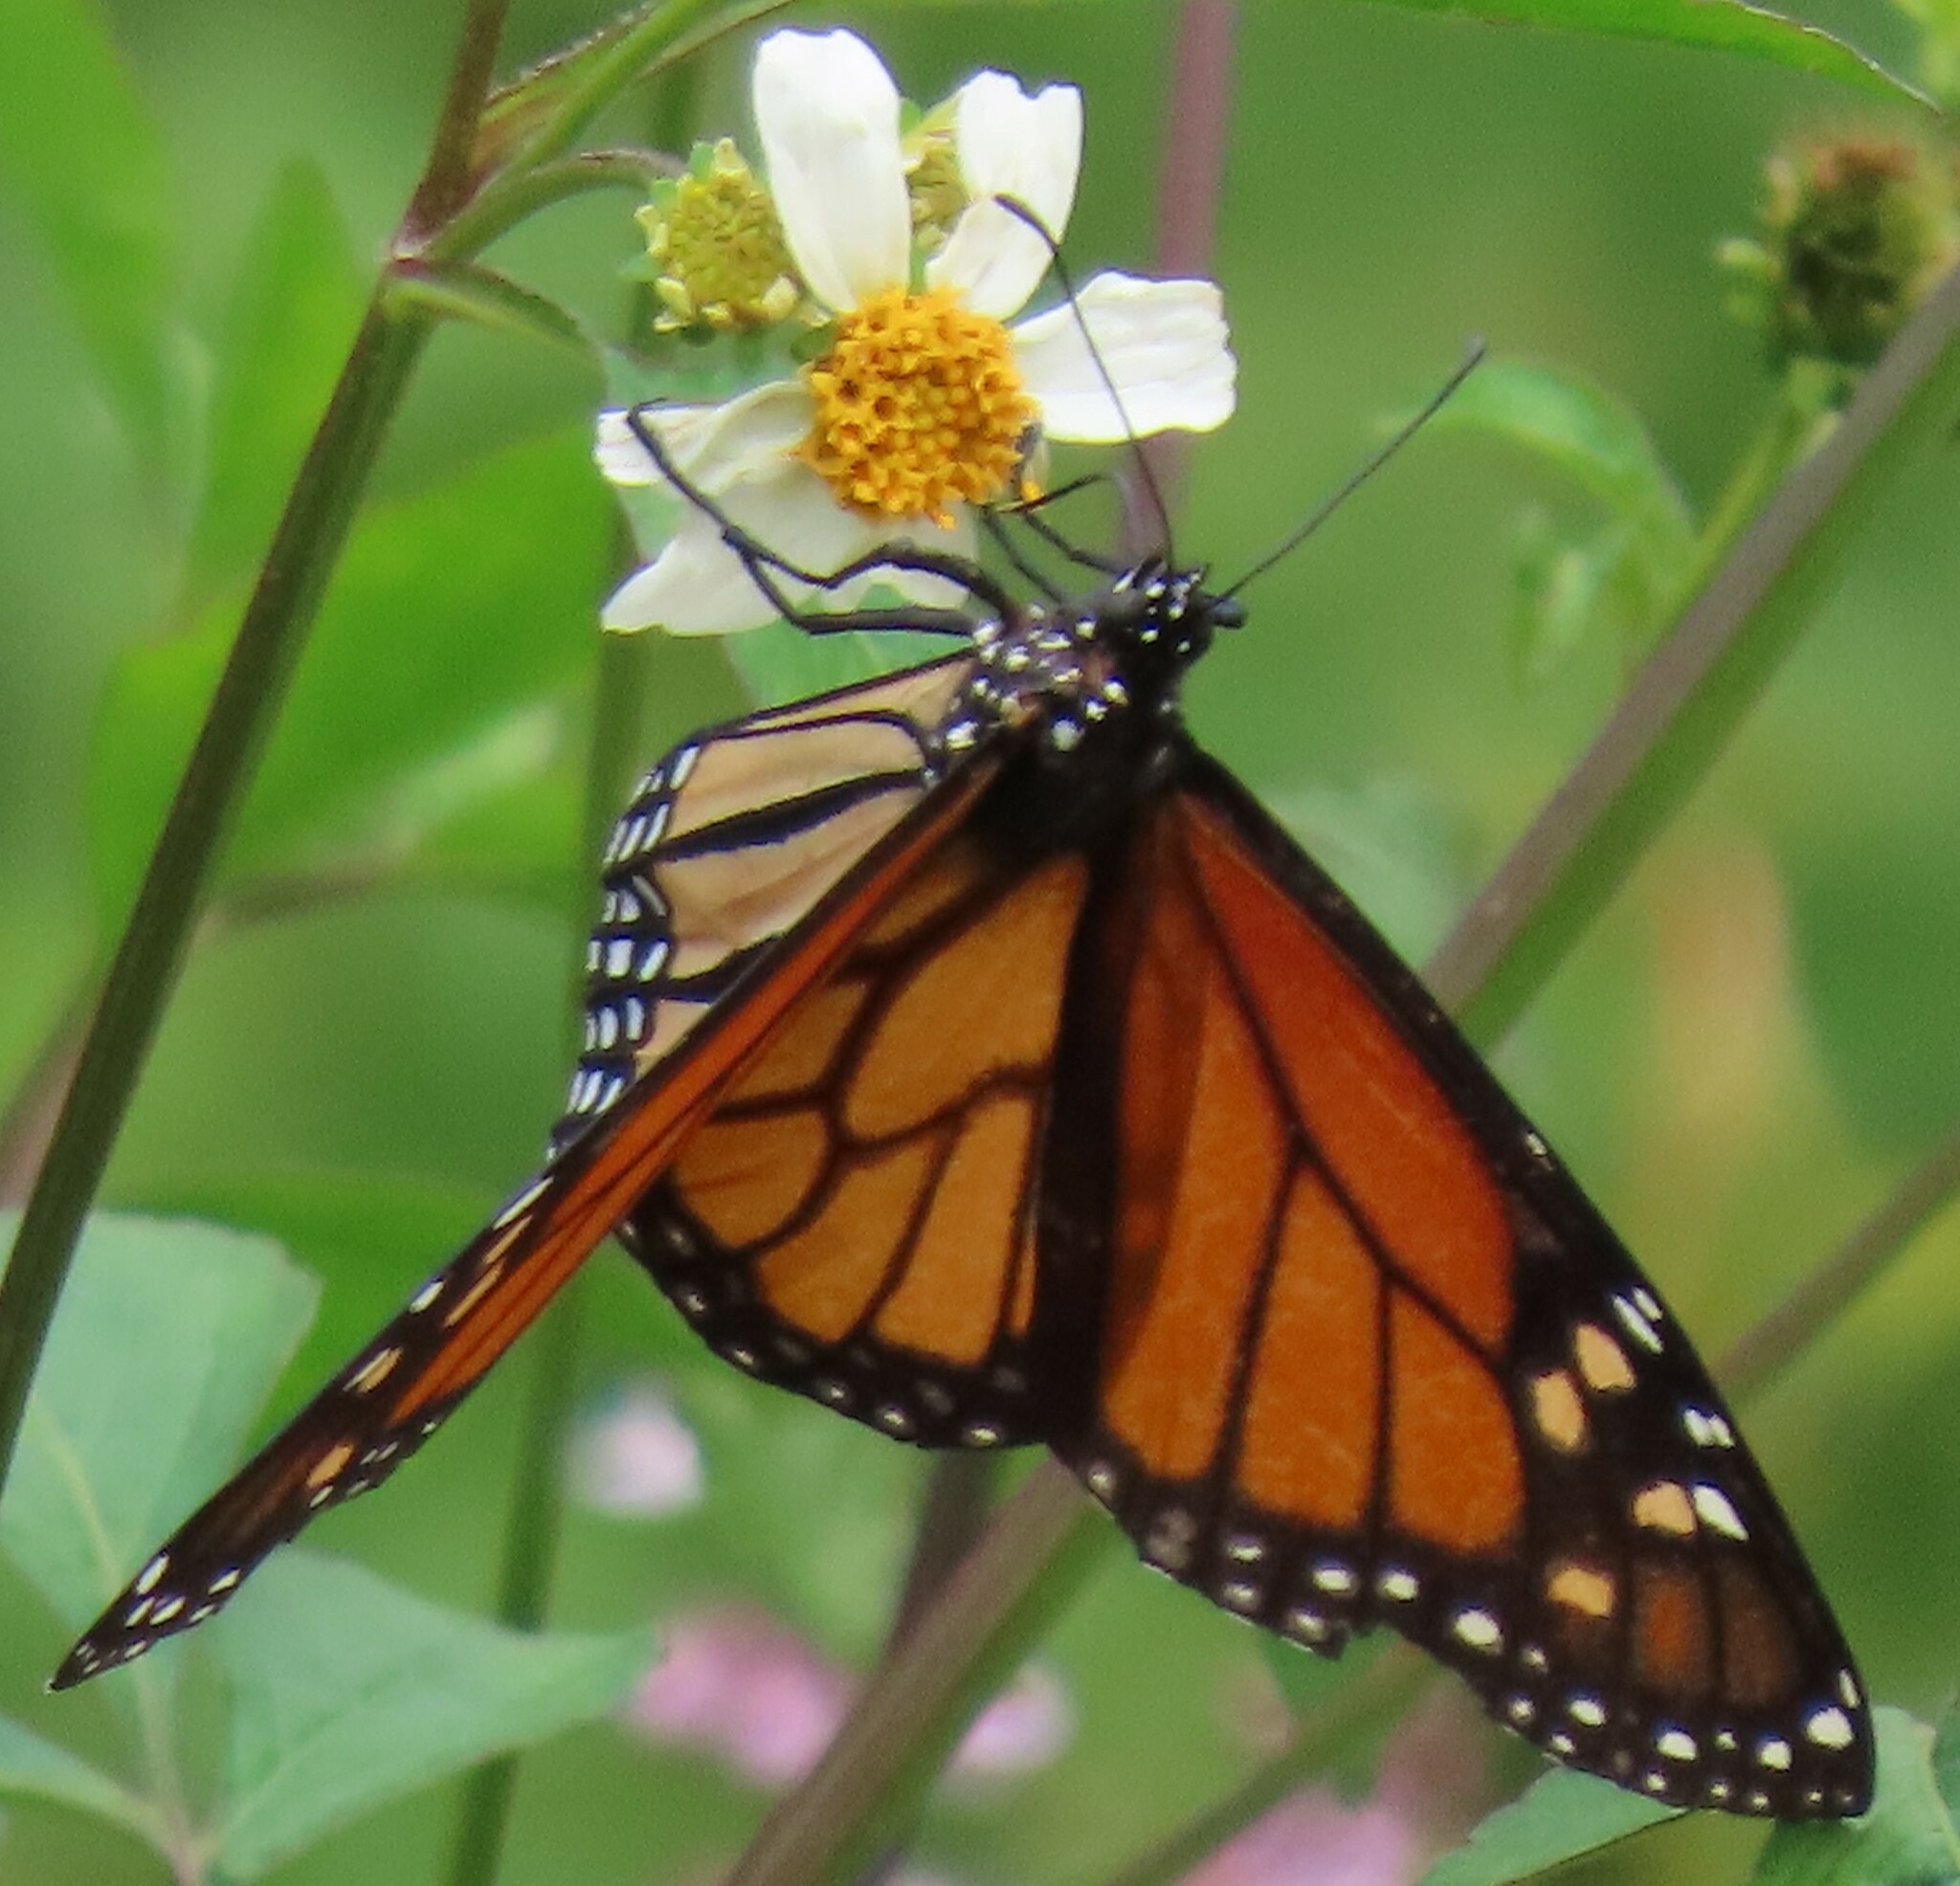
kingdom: Animalia
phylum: Arthropoda
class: Insecta
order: Lepidoptera
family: Nymphalidae
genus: Danaus
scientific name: Danaus plexippus
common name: Monarch
